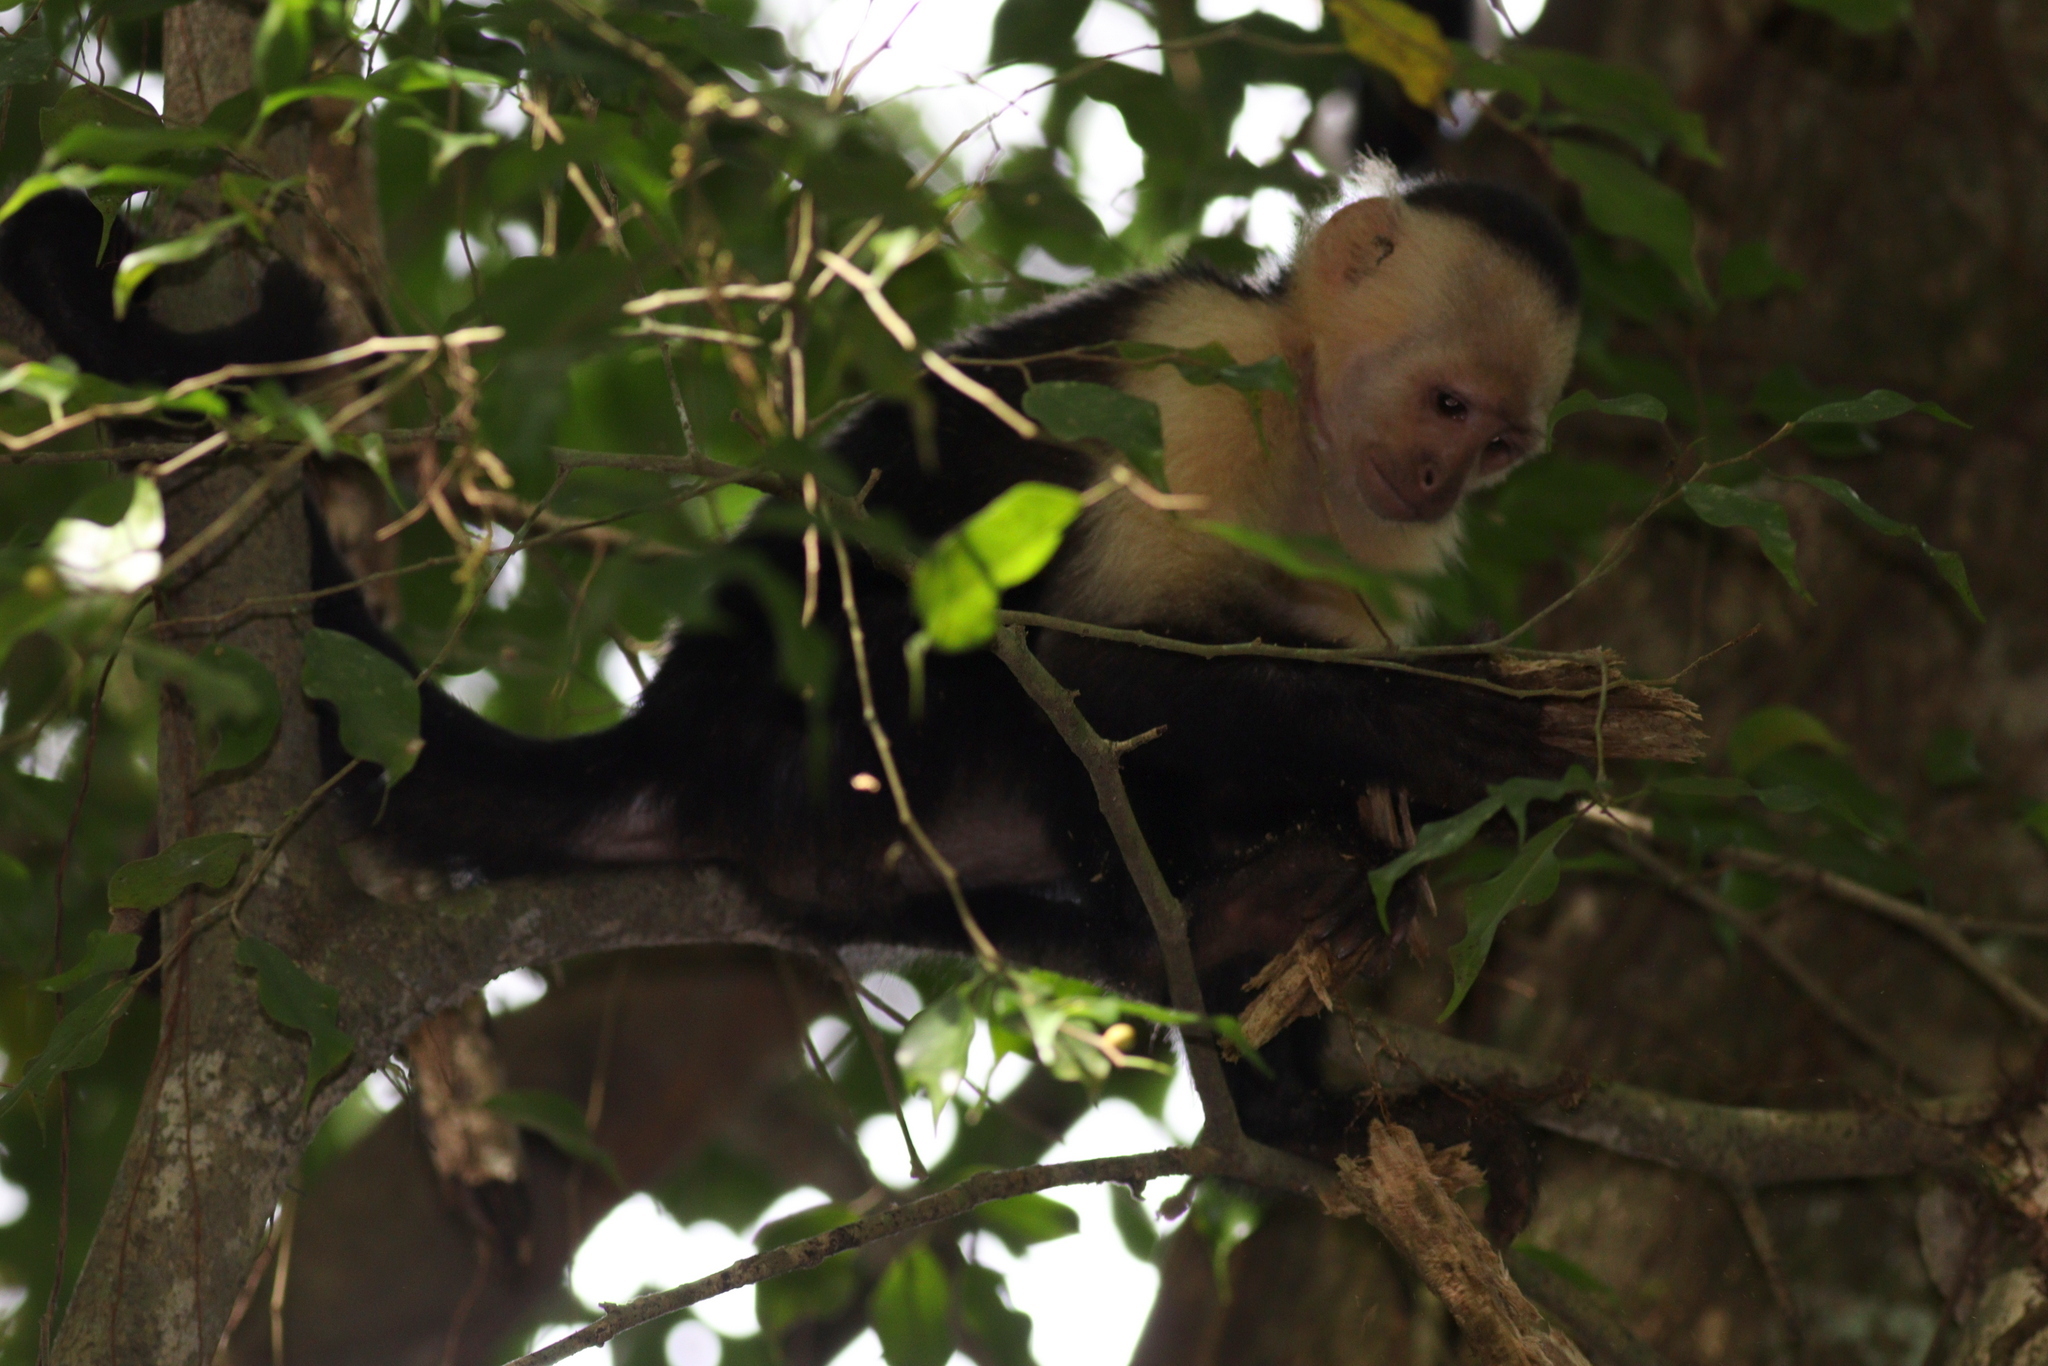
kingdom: Animalia
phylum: Chordata
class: Mammalia
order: Primates
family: Cebidae
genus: Cebus
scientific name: Cebus imitator
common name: Panamanian white-faced capuchin
